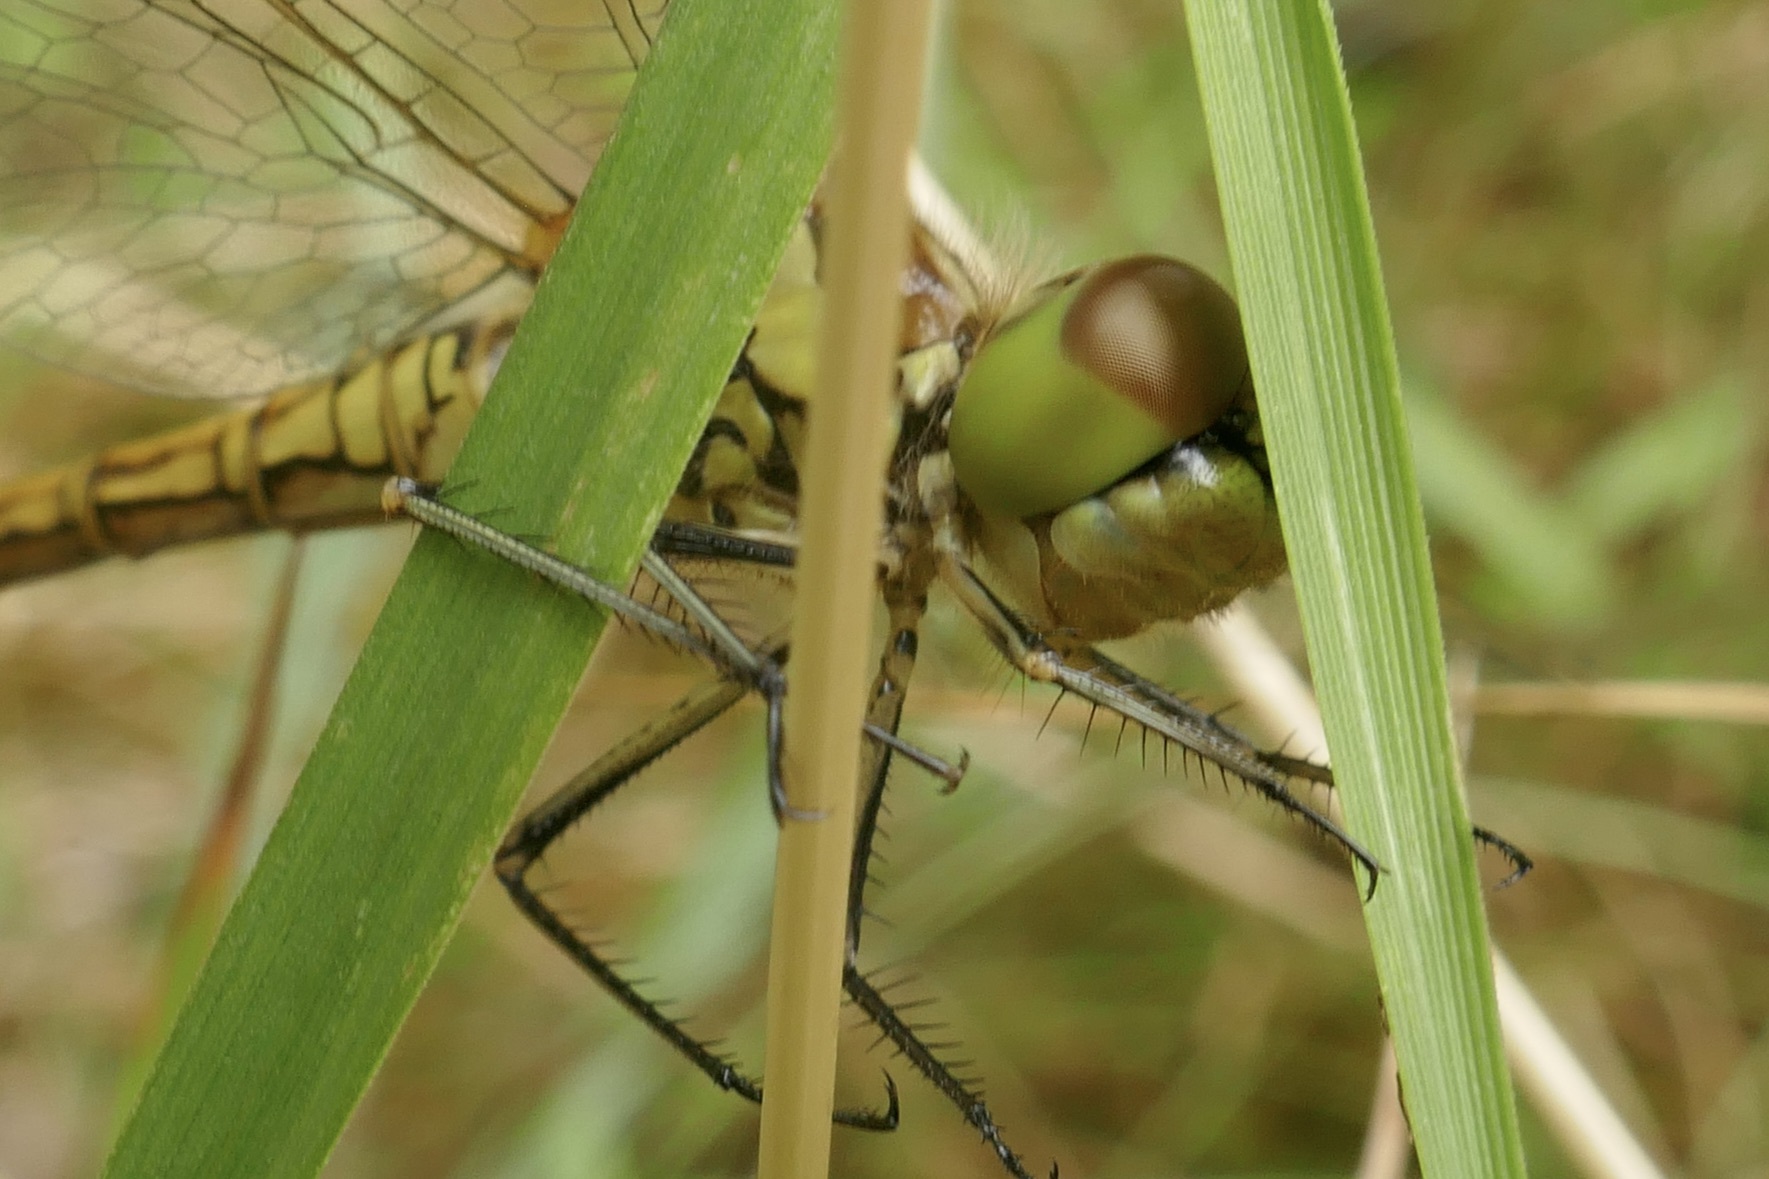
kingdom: Animalia
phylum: Arthropoda
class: Insecta
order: Odonata
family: Libellulidae
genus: Sympetrum
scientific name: Sympetrum vulgatum
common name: Vagrant darter
